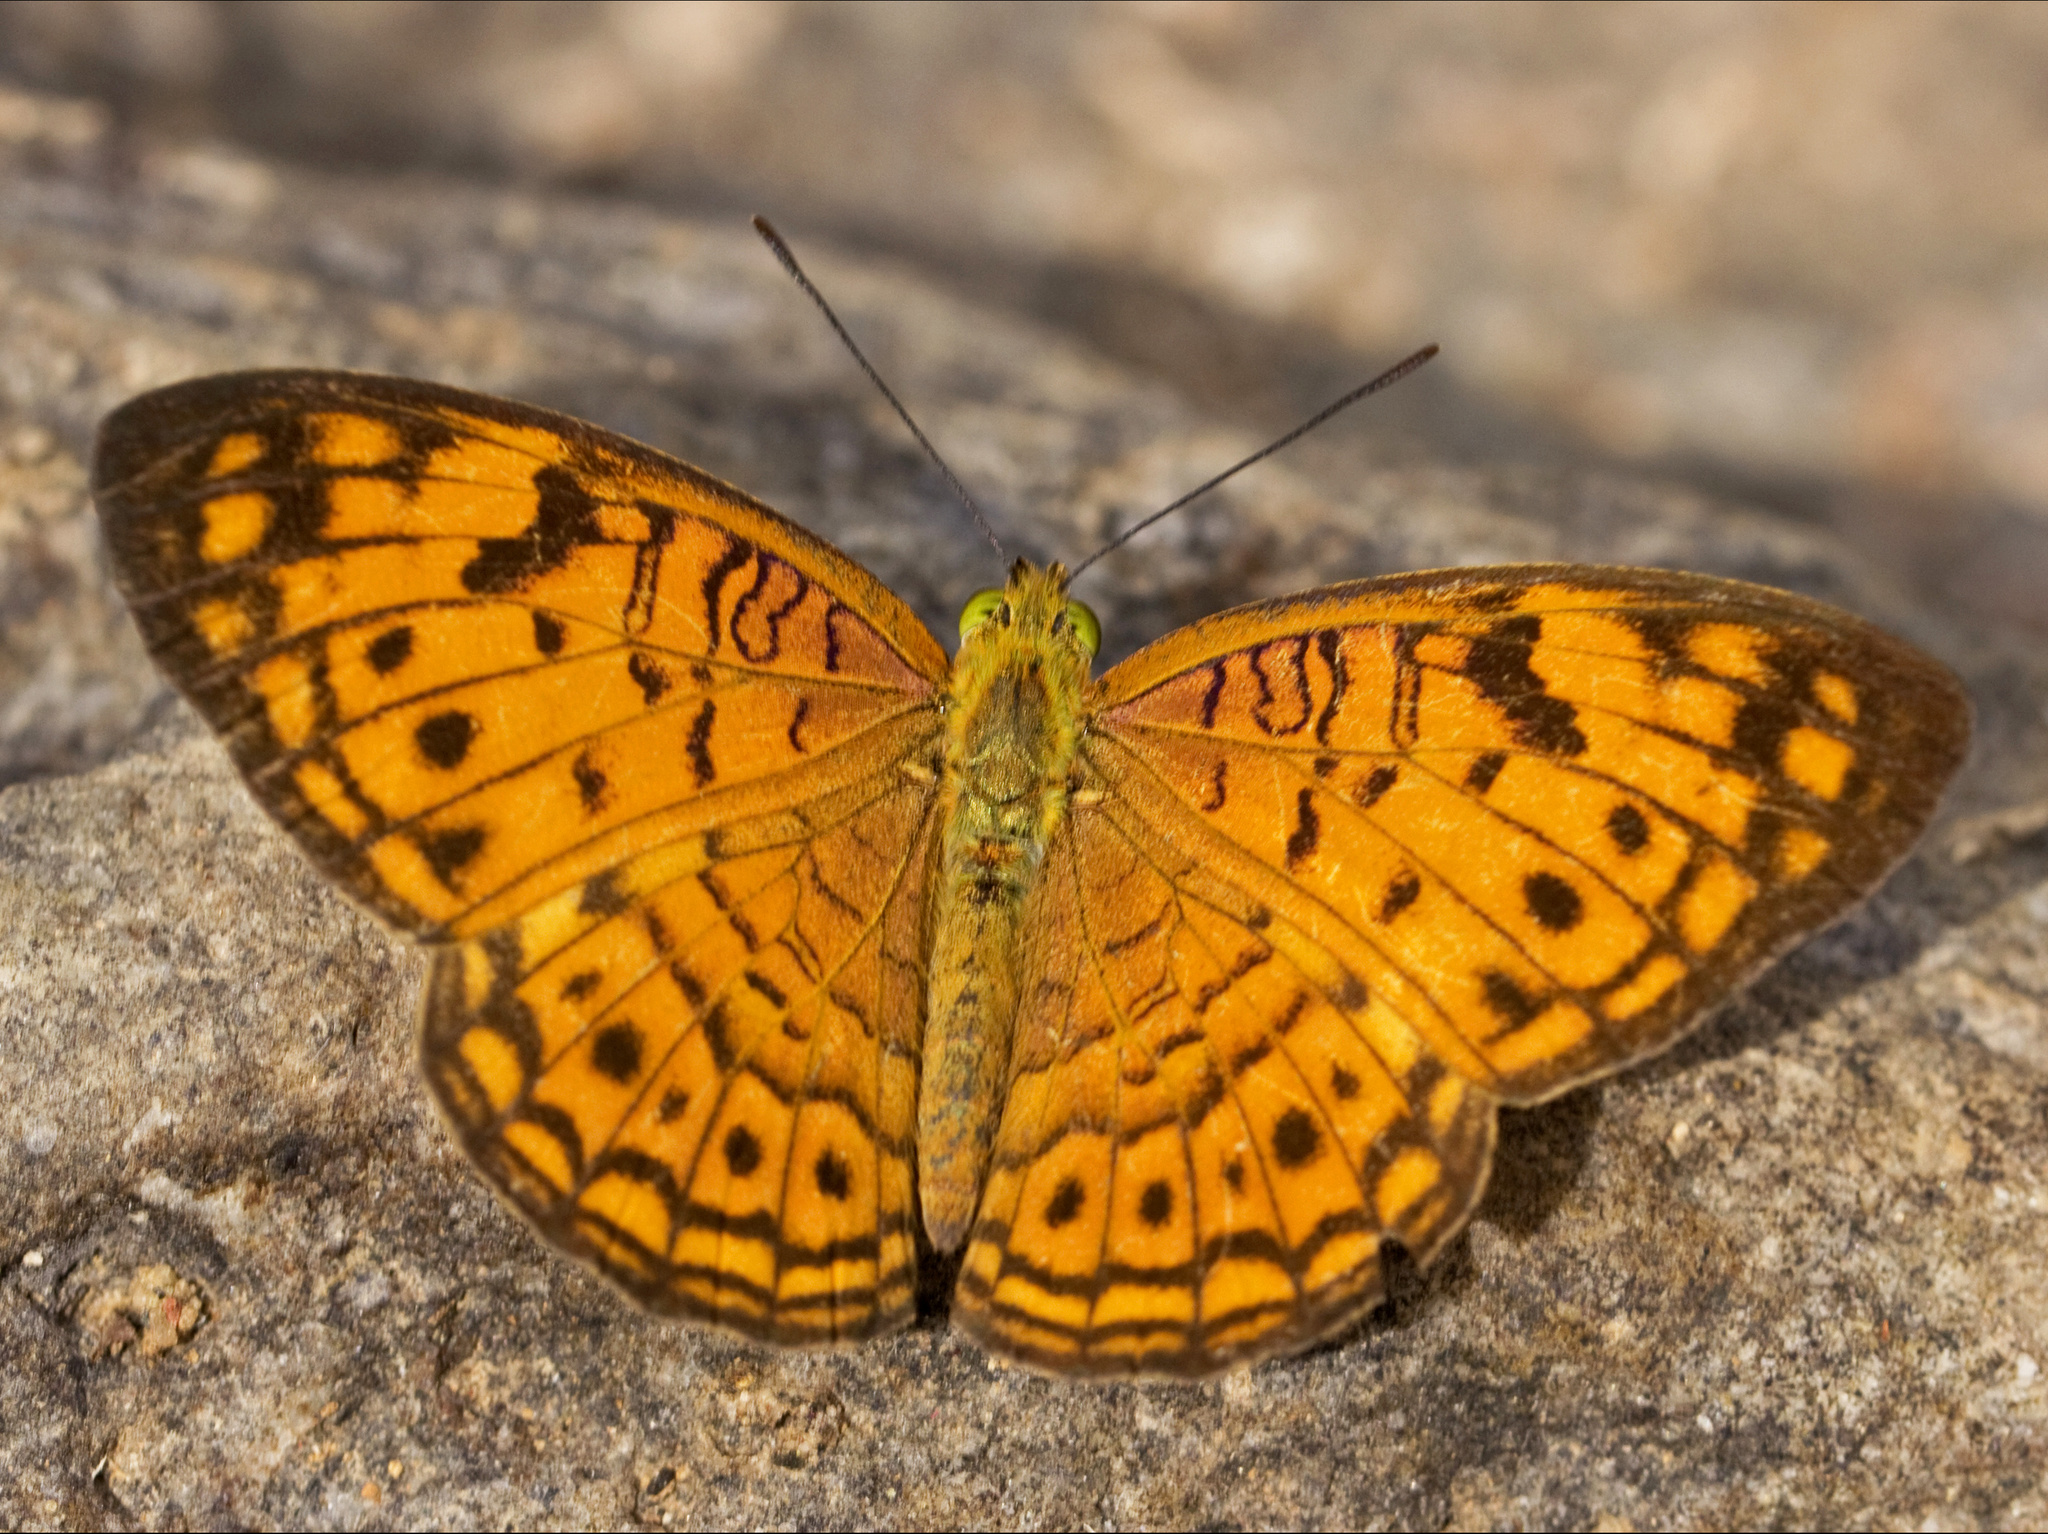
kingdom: Animalia
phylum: Arthropoda
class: Insecta
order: Lepidoptera
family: Nymphalidae
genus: Phalanta
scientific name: Phalanta alcippe
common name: Small leopard
